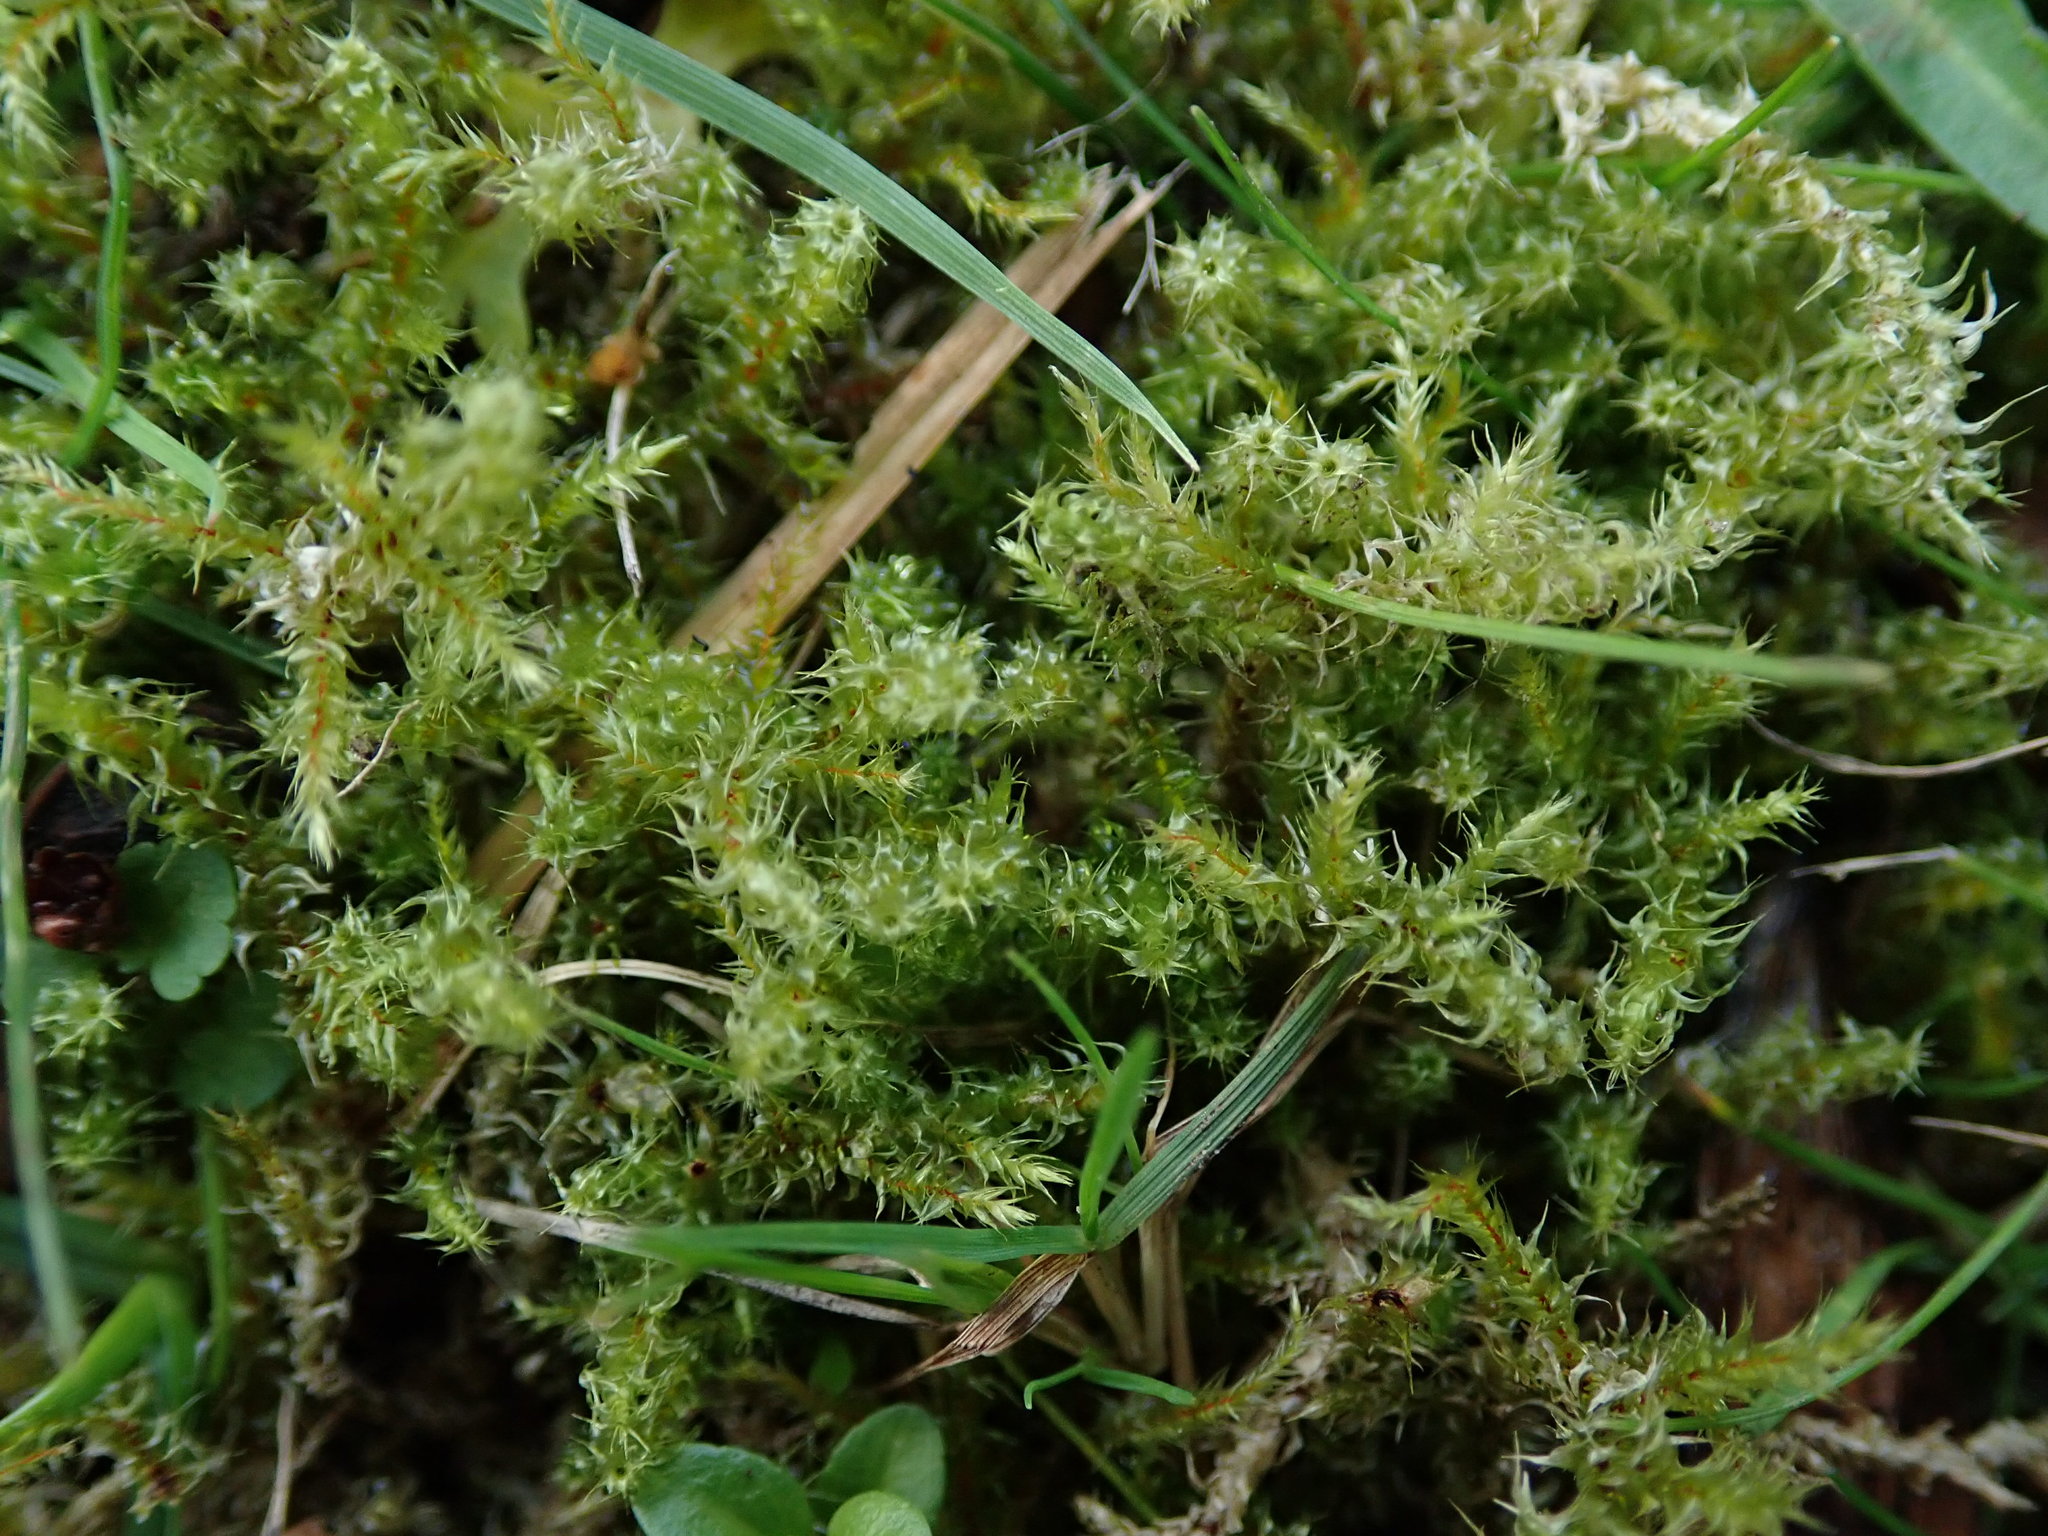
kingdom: Plantae
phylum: Bryophyta
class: Bryopsida
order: Hypnales
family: Hylocomiaceae
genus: Rhytidiadelphus
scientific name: Rhytidiadelphus squarrosus
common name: Springy turf-moss
